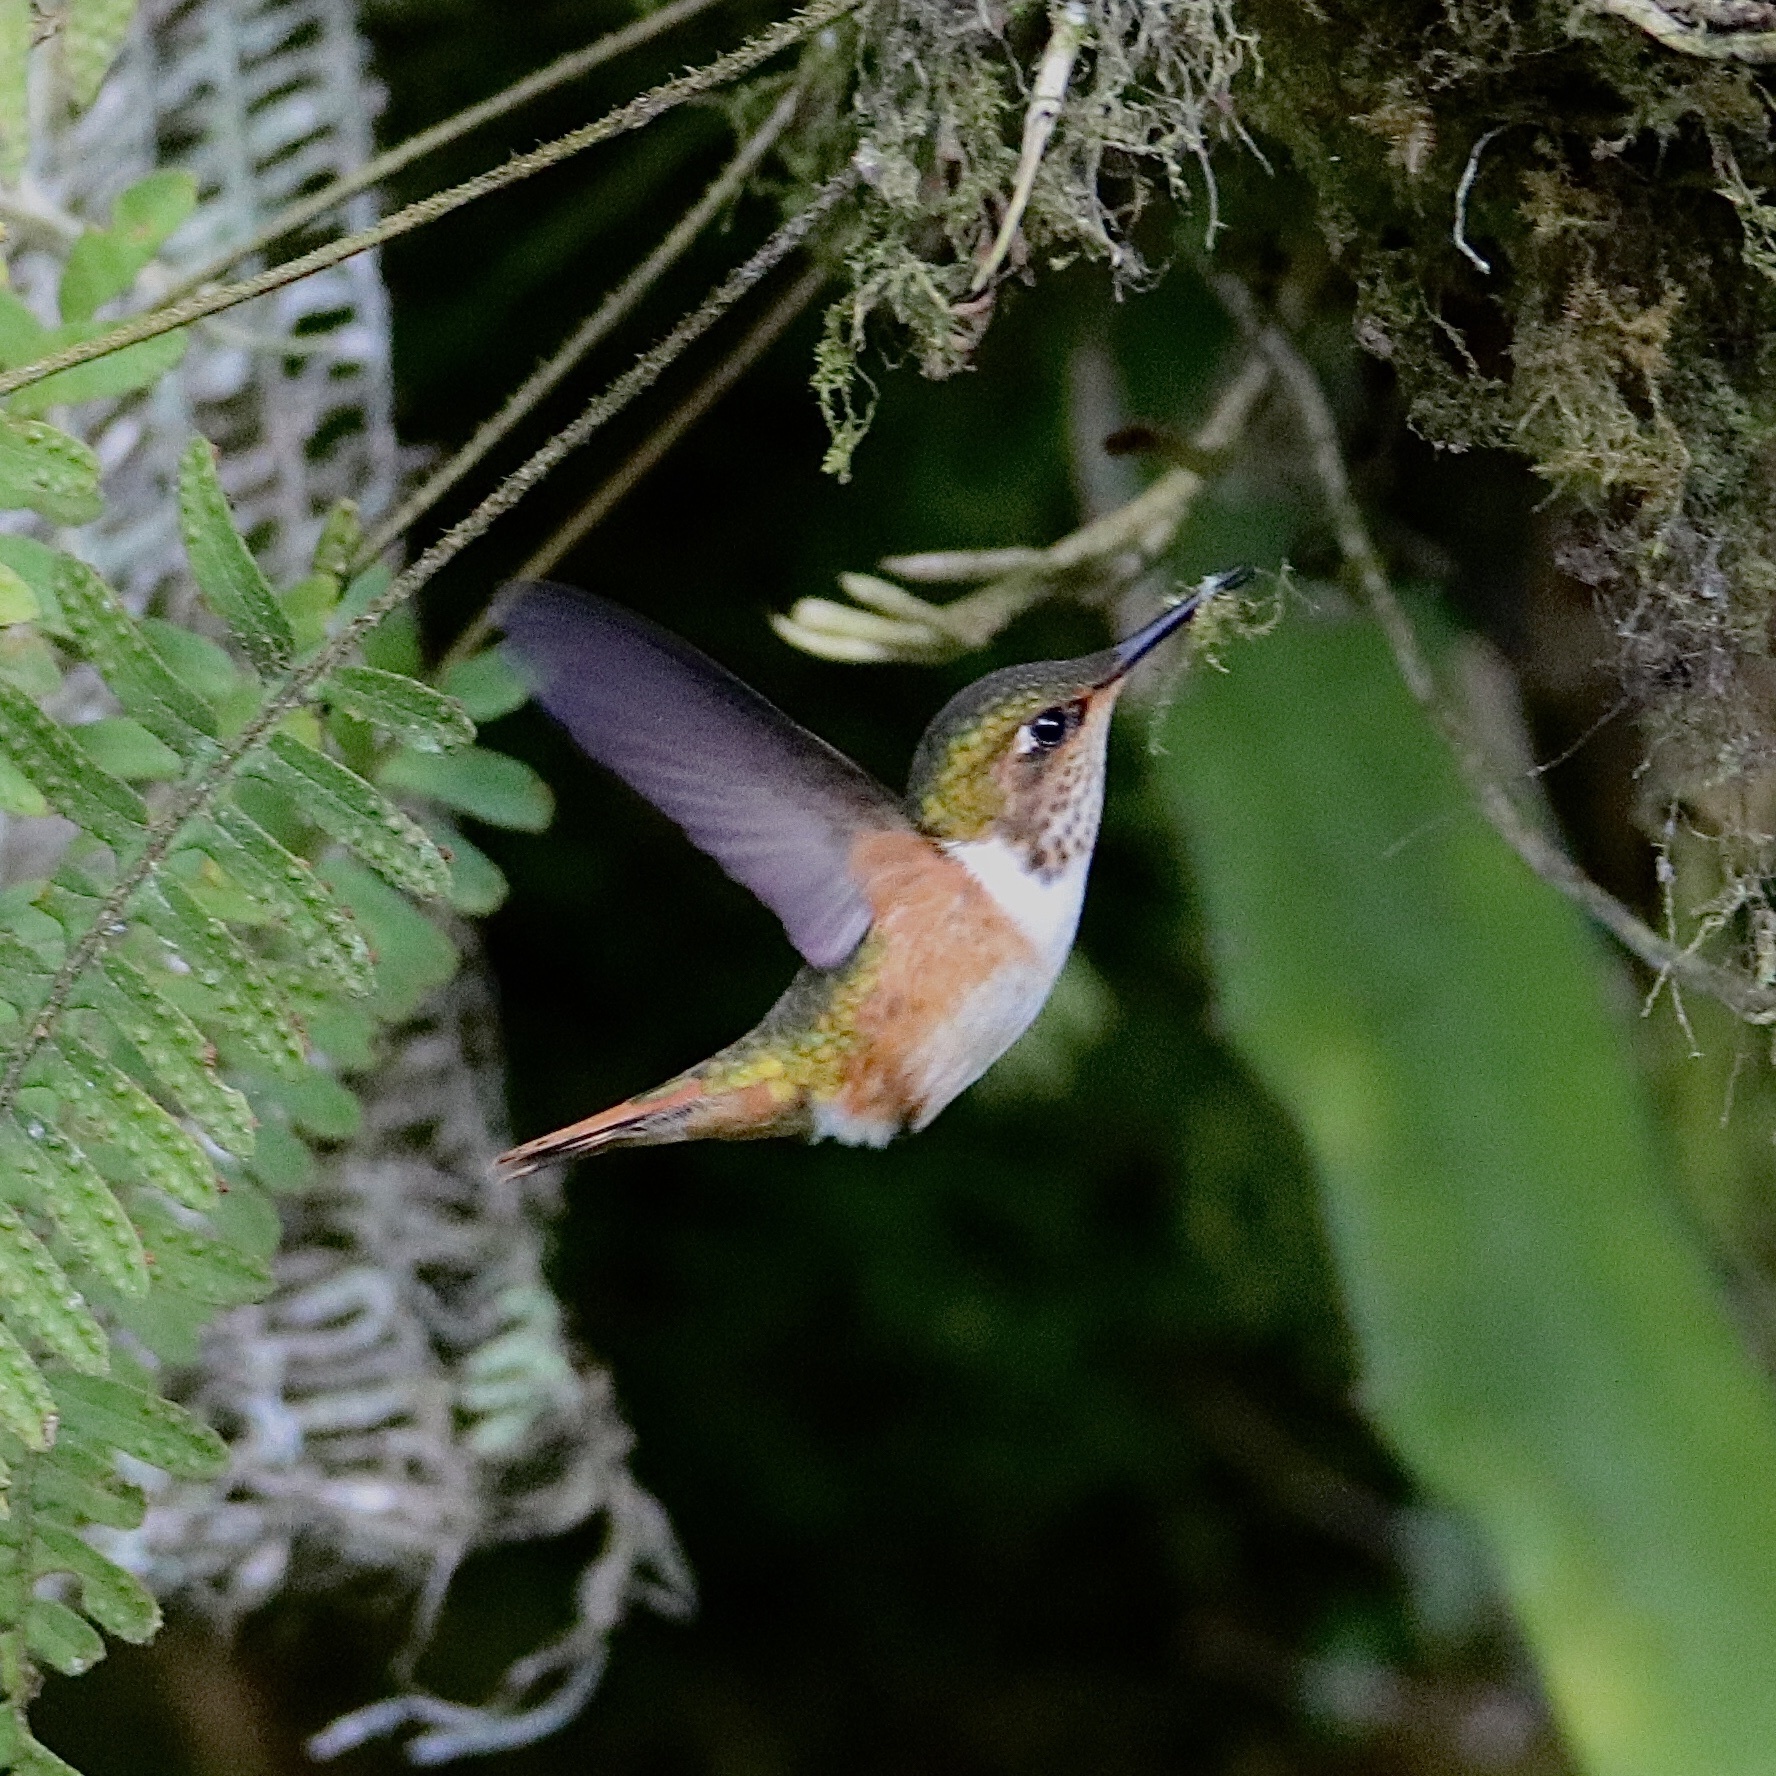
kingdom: Animalia
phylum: Chordata
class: Aves
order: Apodiformes
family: Trochilidae
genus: Selasphorus
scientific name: Selasphorus scintilla
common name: Scintillant hummingbird
